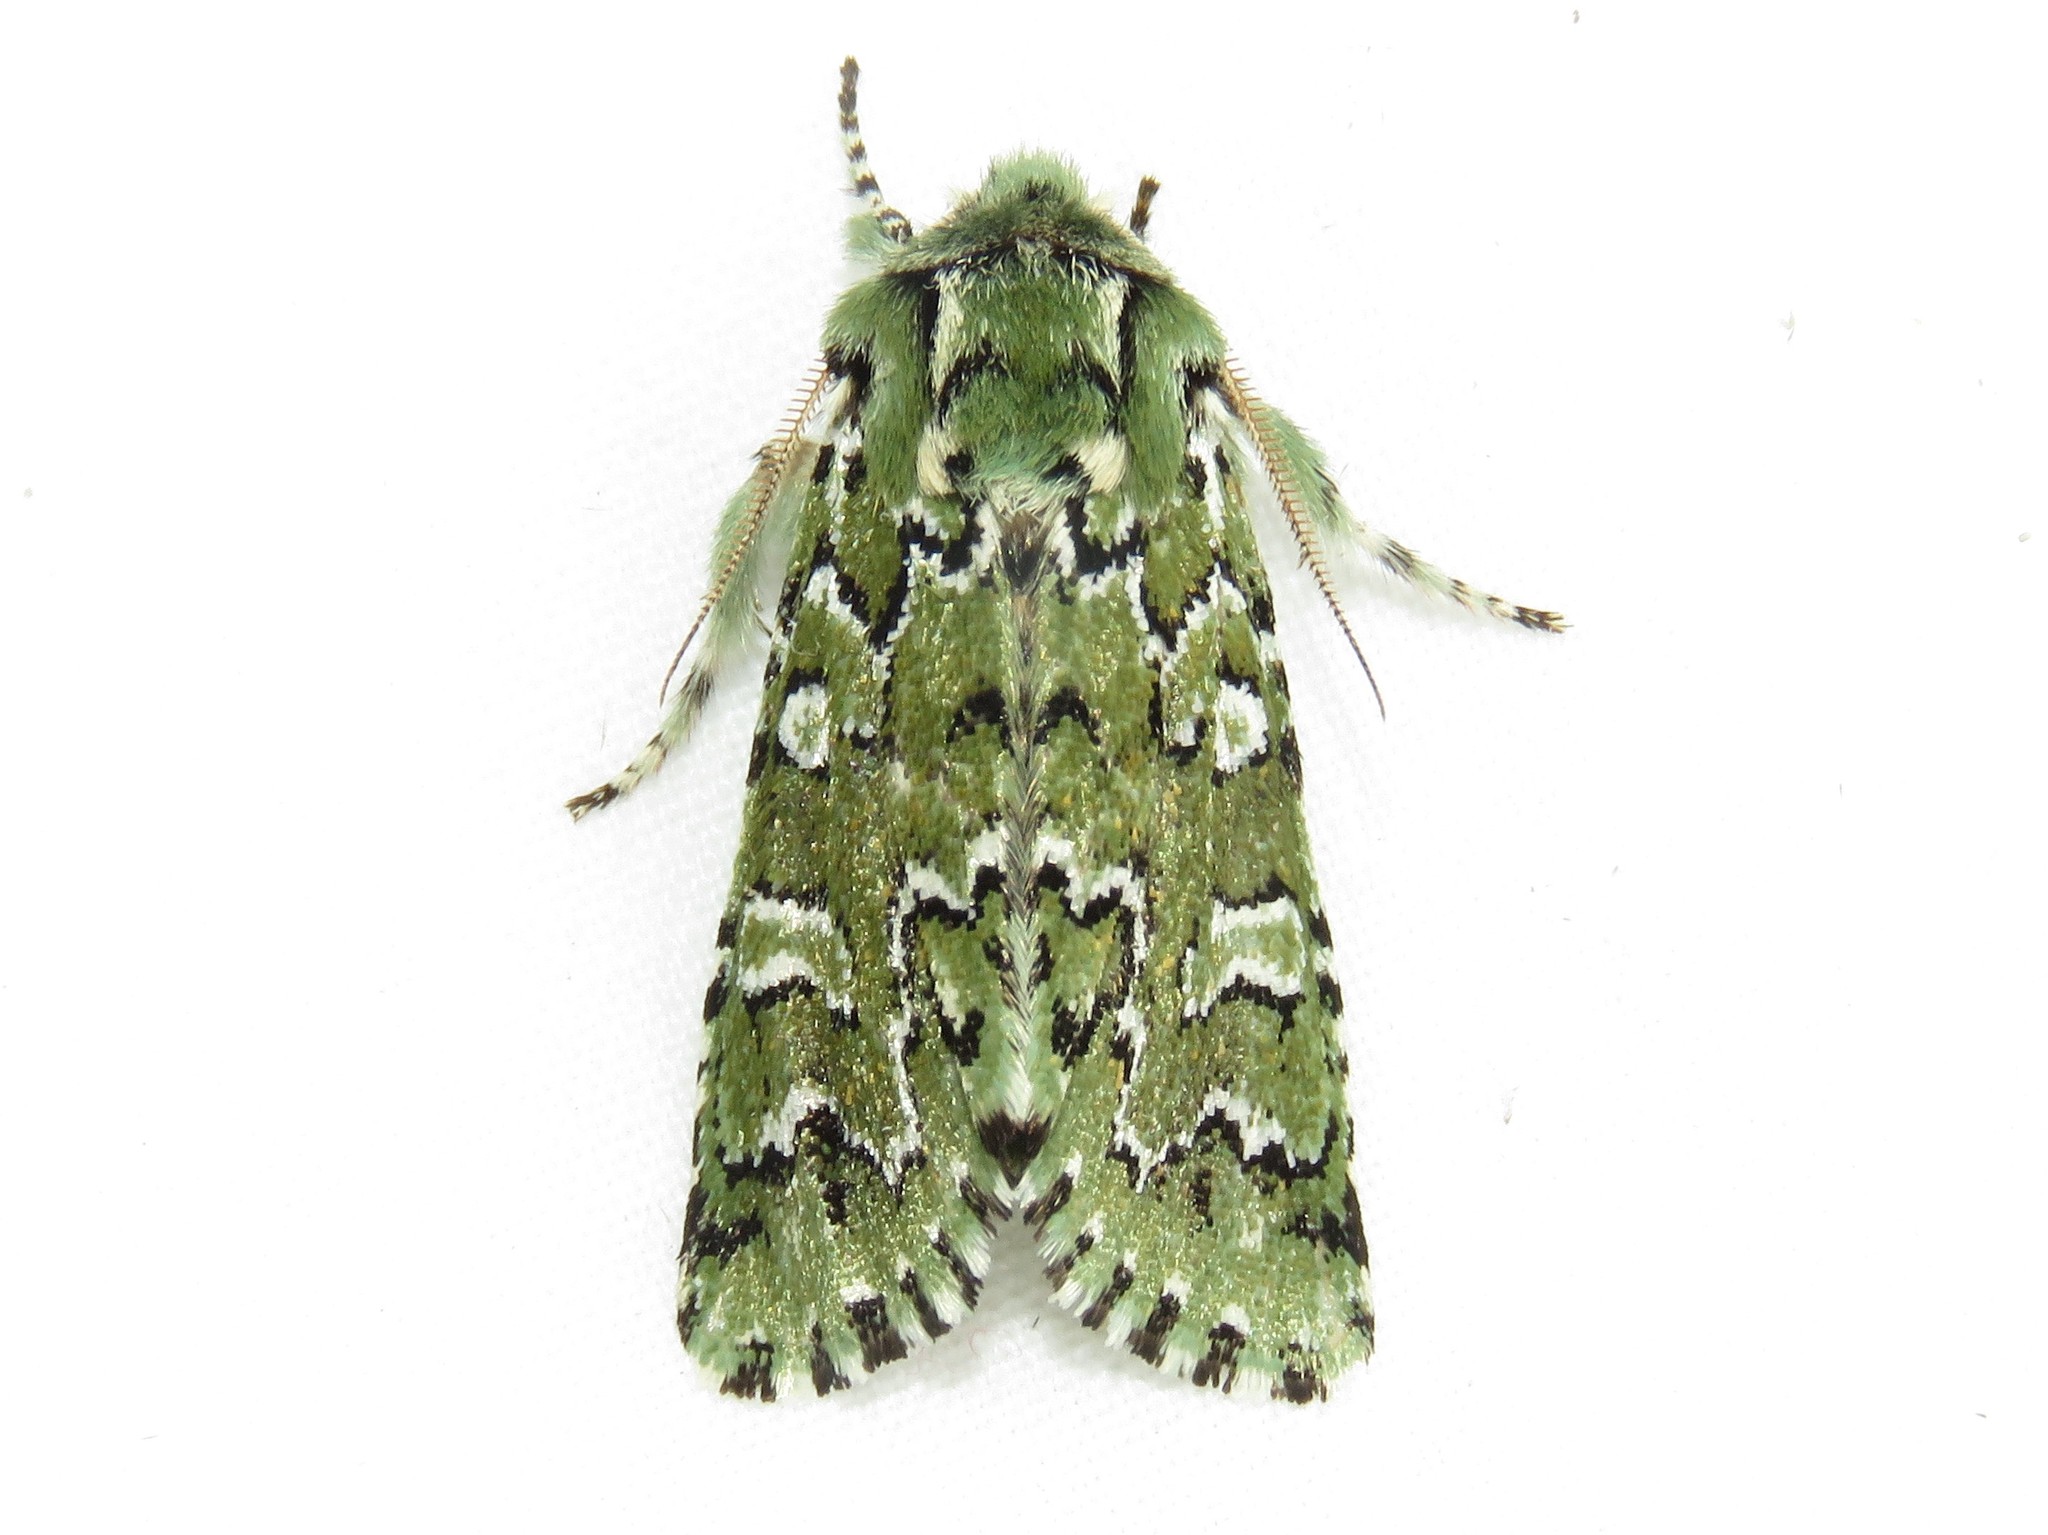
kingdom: Animalia
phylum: Arthropoda
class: Insecta
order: Lepidoptera
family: Noctuidae
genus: Feralia
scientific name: Feralia jocosa
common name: Joker
